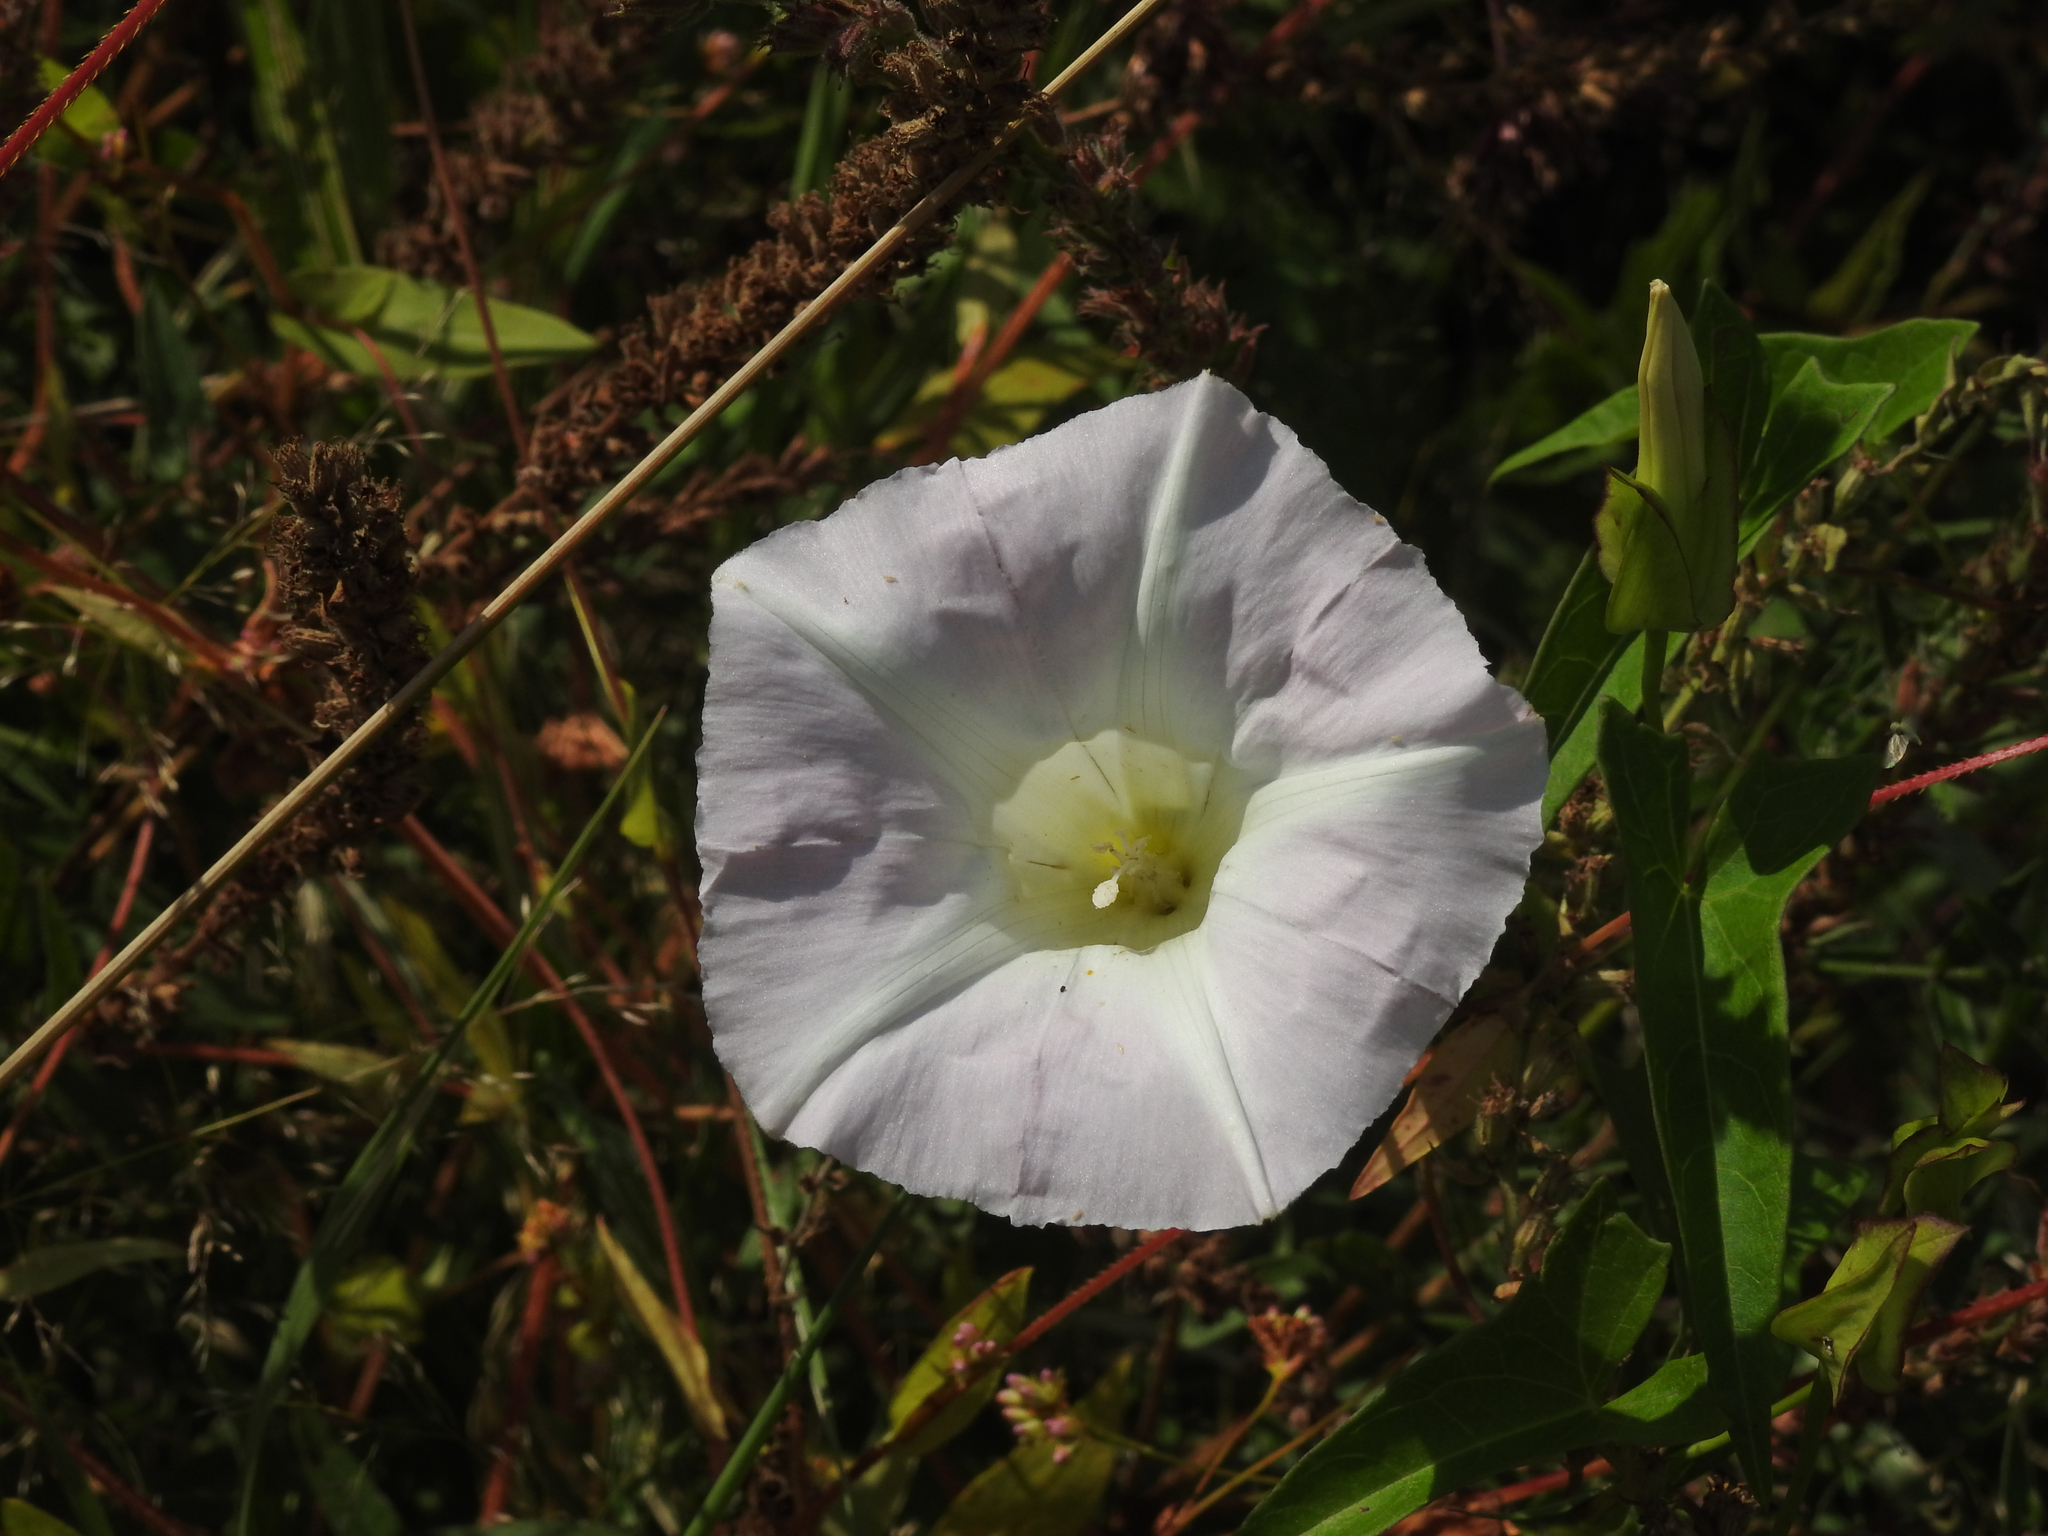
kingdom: Plantae
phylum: Tracheophyta
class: Magnoliopsida
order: Solanales
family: Convolvulaceae
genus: Calystegia
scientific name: Calystegia sepium
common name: Hedge bindweed
